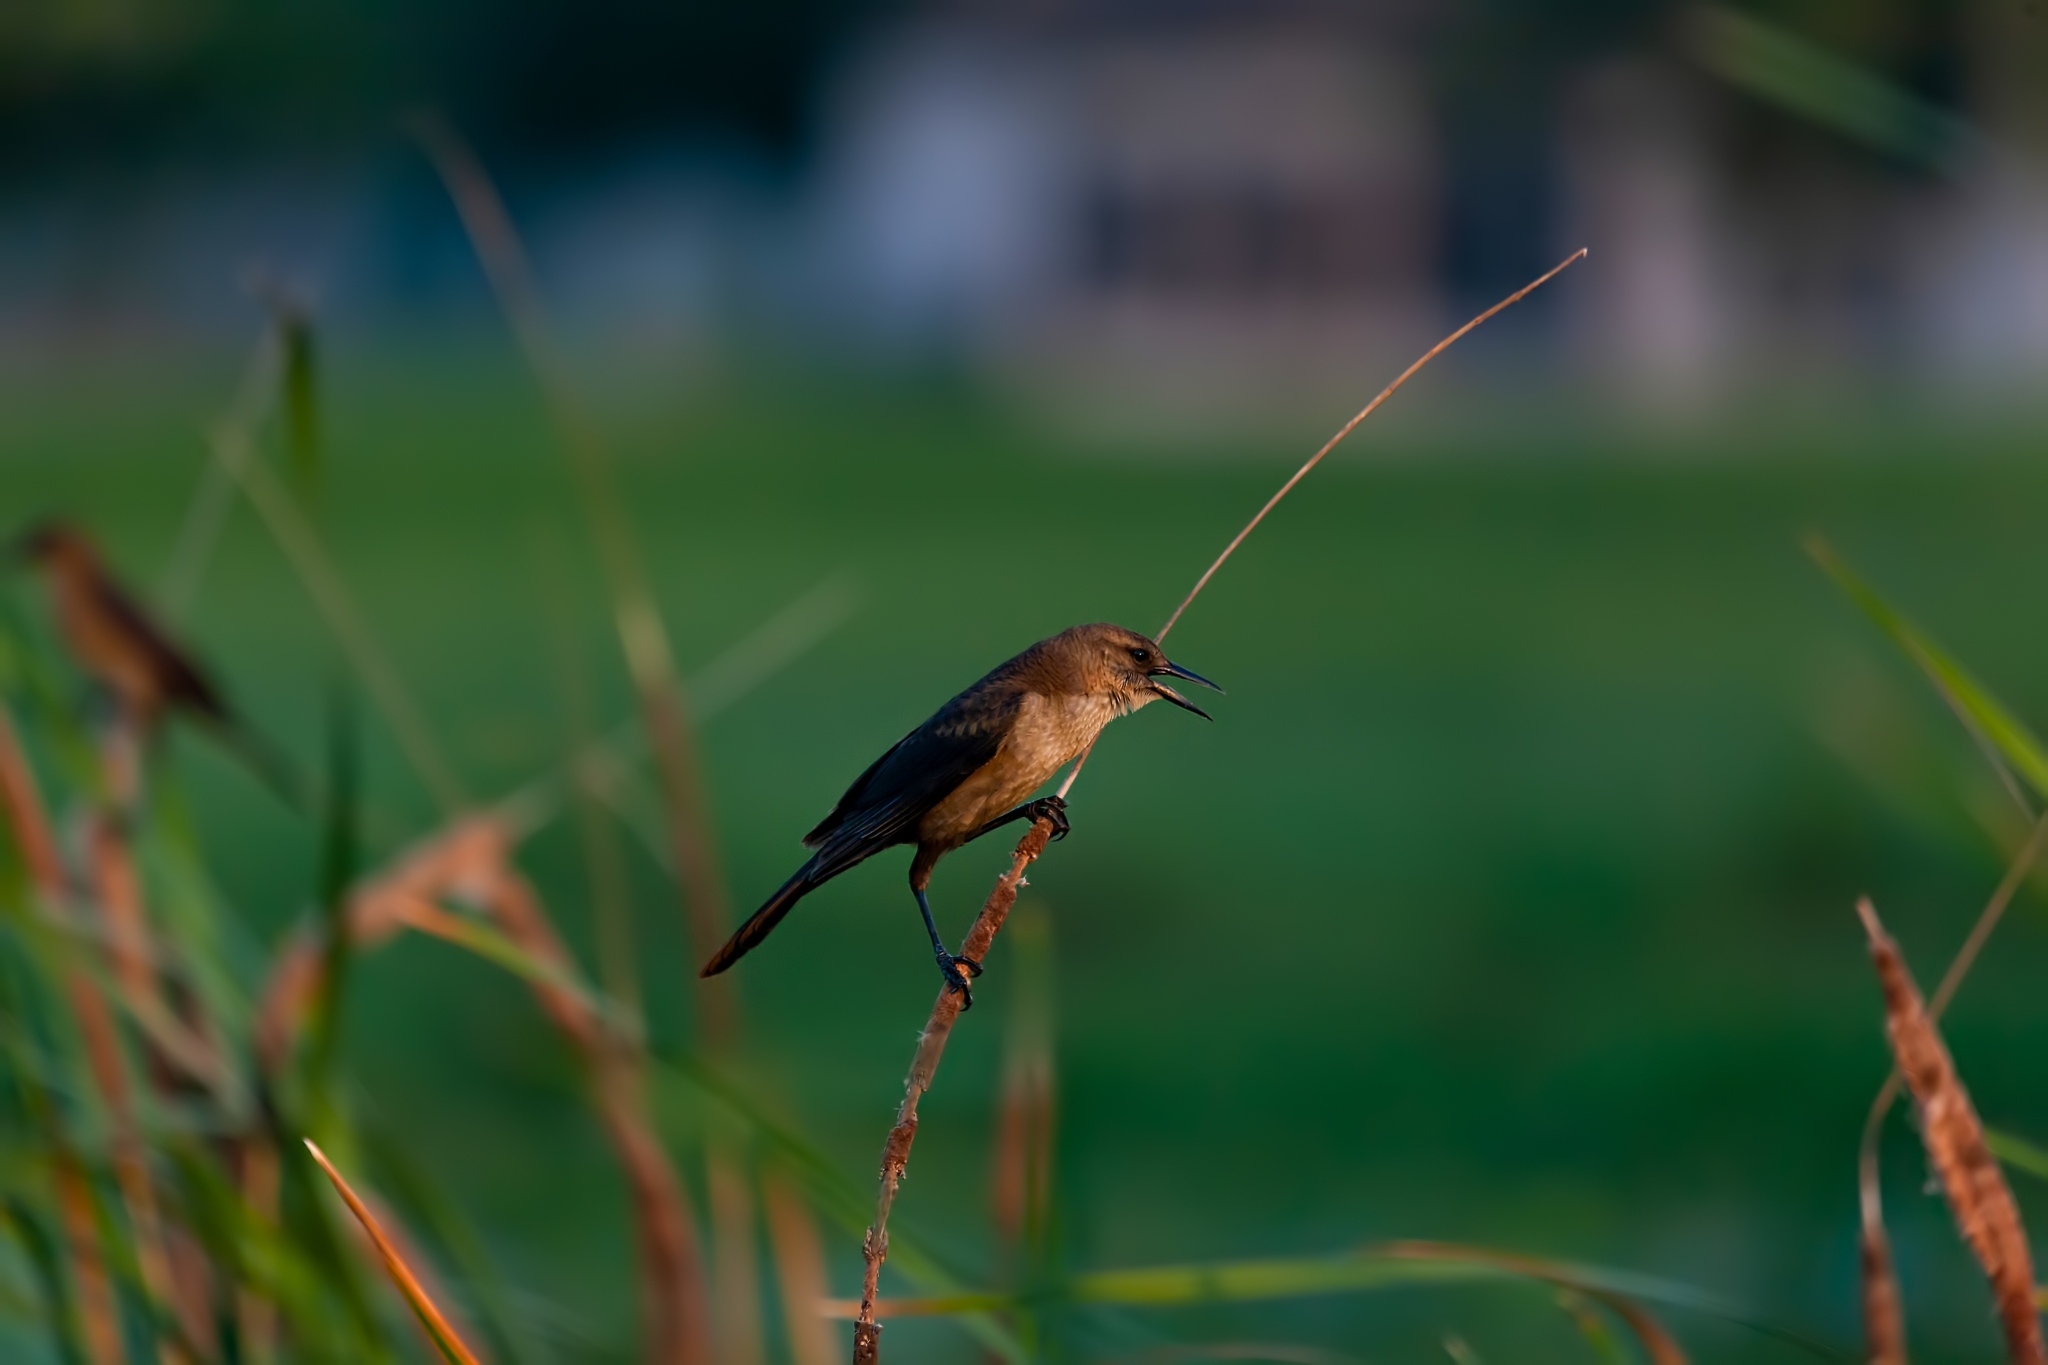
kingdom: Animalia
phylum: Chordata
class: Aves
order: Passeriformes
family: Icteridae
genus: Quiscalus
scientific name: Quiscalus major
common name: Boat-tailed grackle
